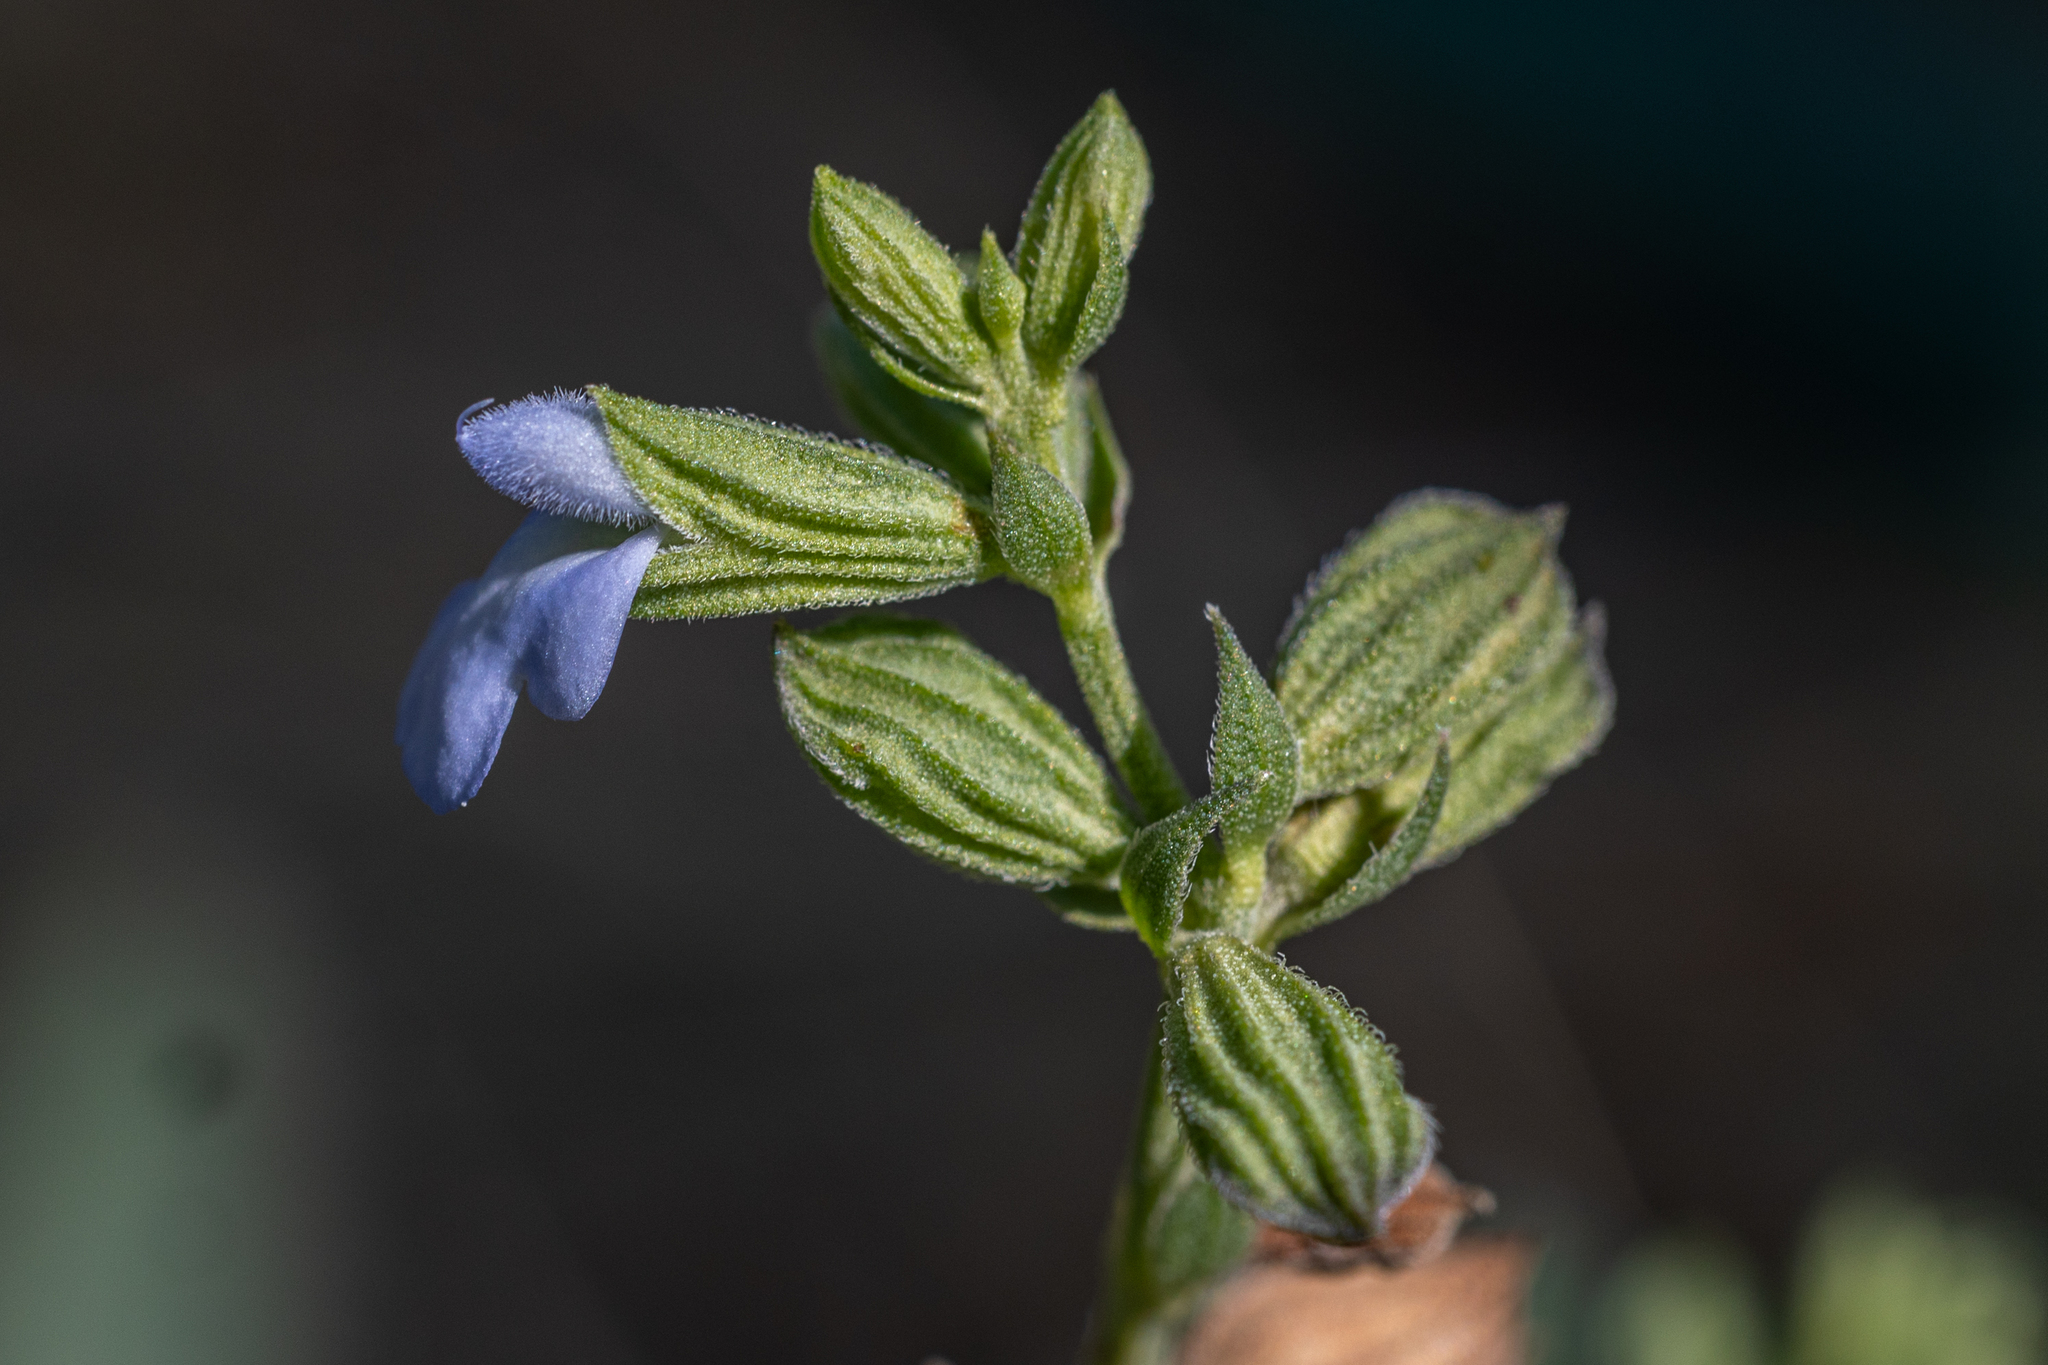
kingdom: Plantae
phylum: Tracheophyta
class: Magnoliopsida
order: Lamiales
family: Lamiaceae
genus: Salvia
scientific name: Salvia reflexa
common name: Mintweed
